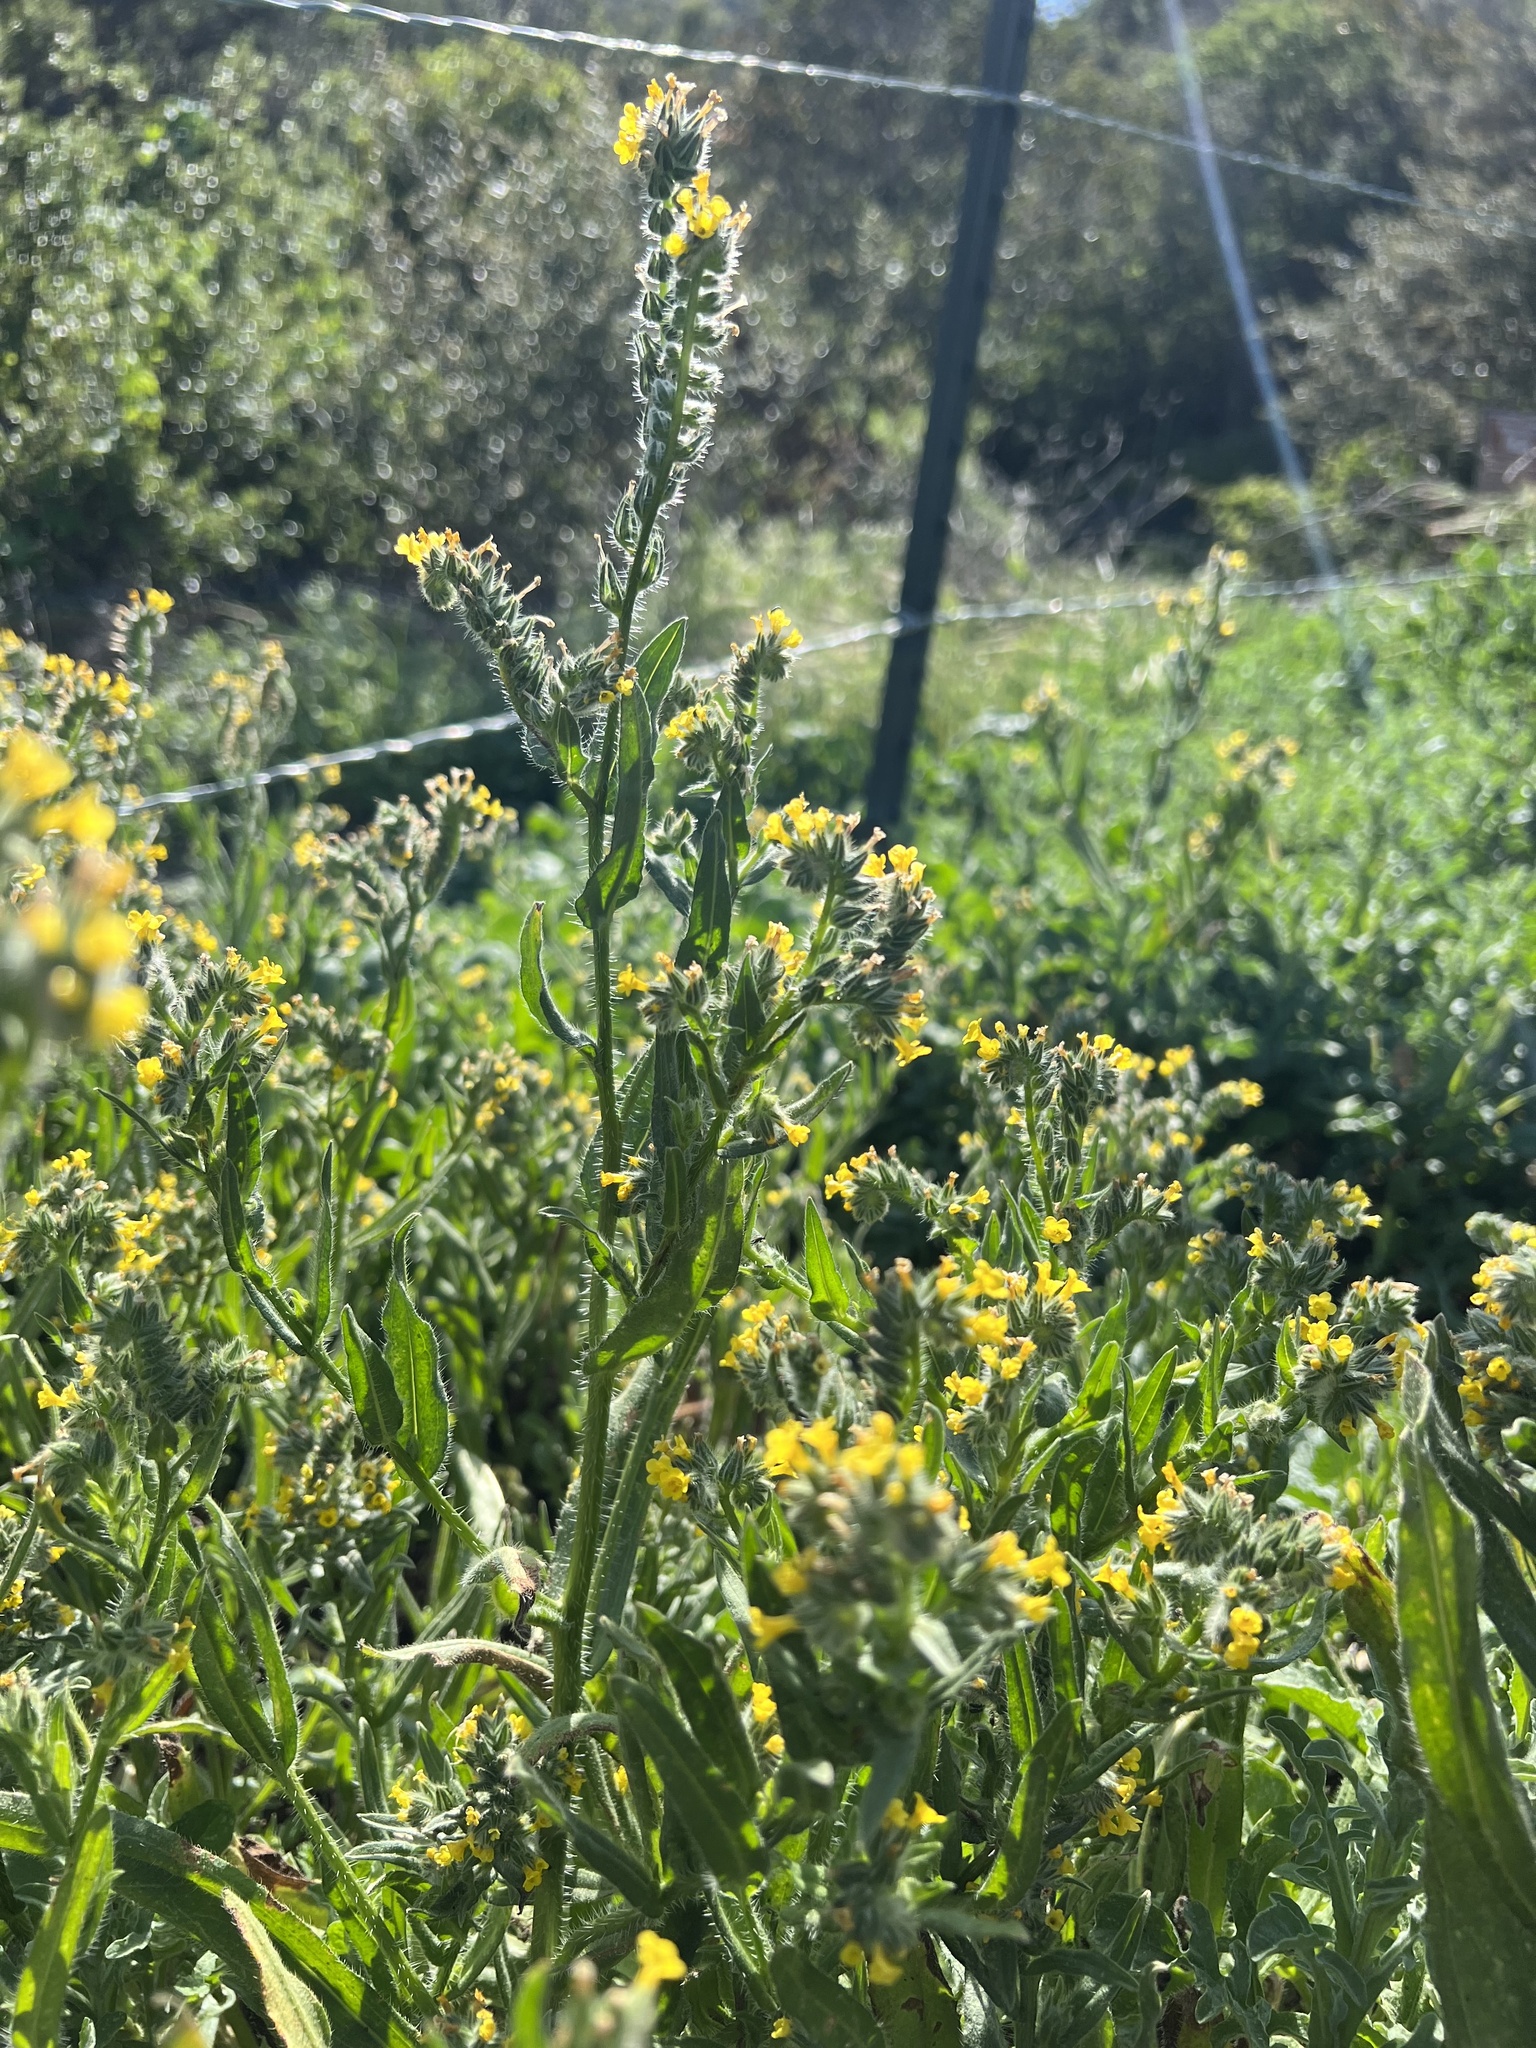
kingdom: Plantae
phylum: Tracheophyta
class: Magnoliopsida
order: Boraginales
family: Boraginaceae
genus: Amsinckia
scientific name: Amsinckia menziesii
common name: Menzies' fiddleneck
